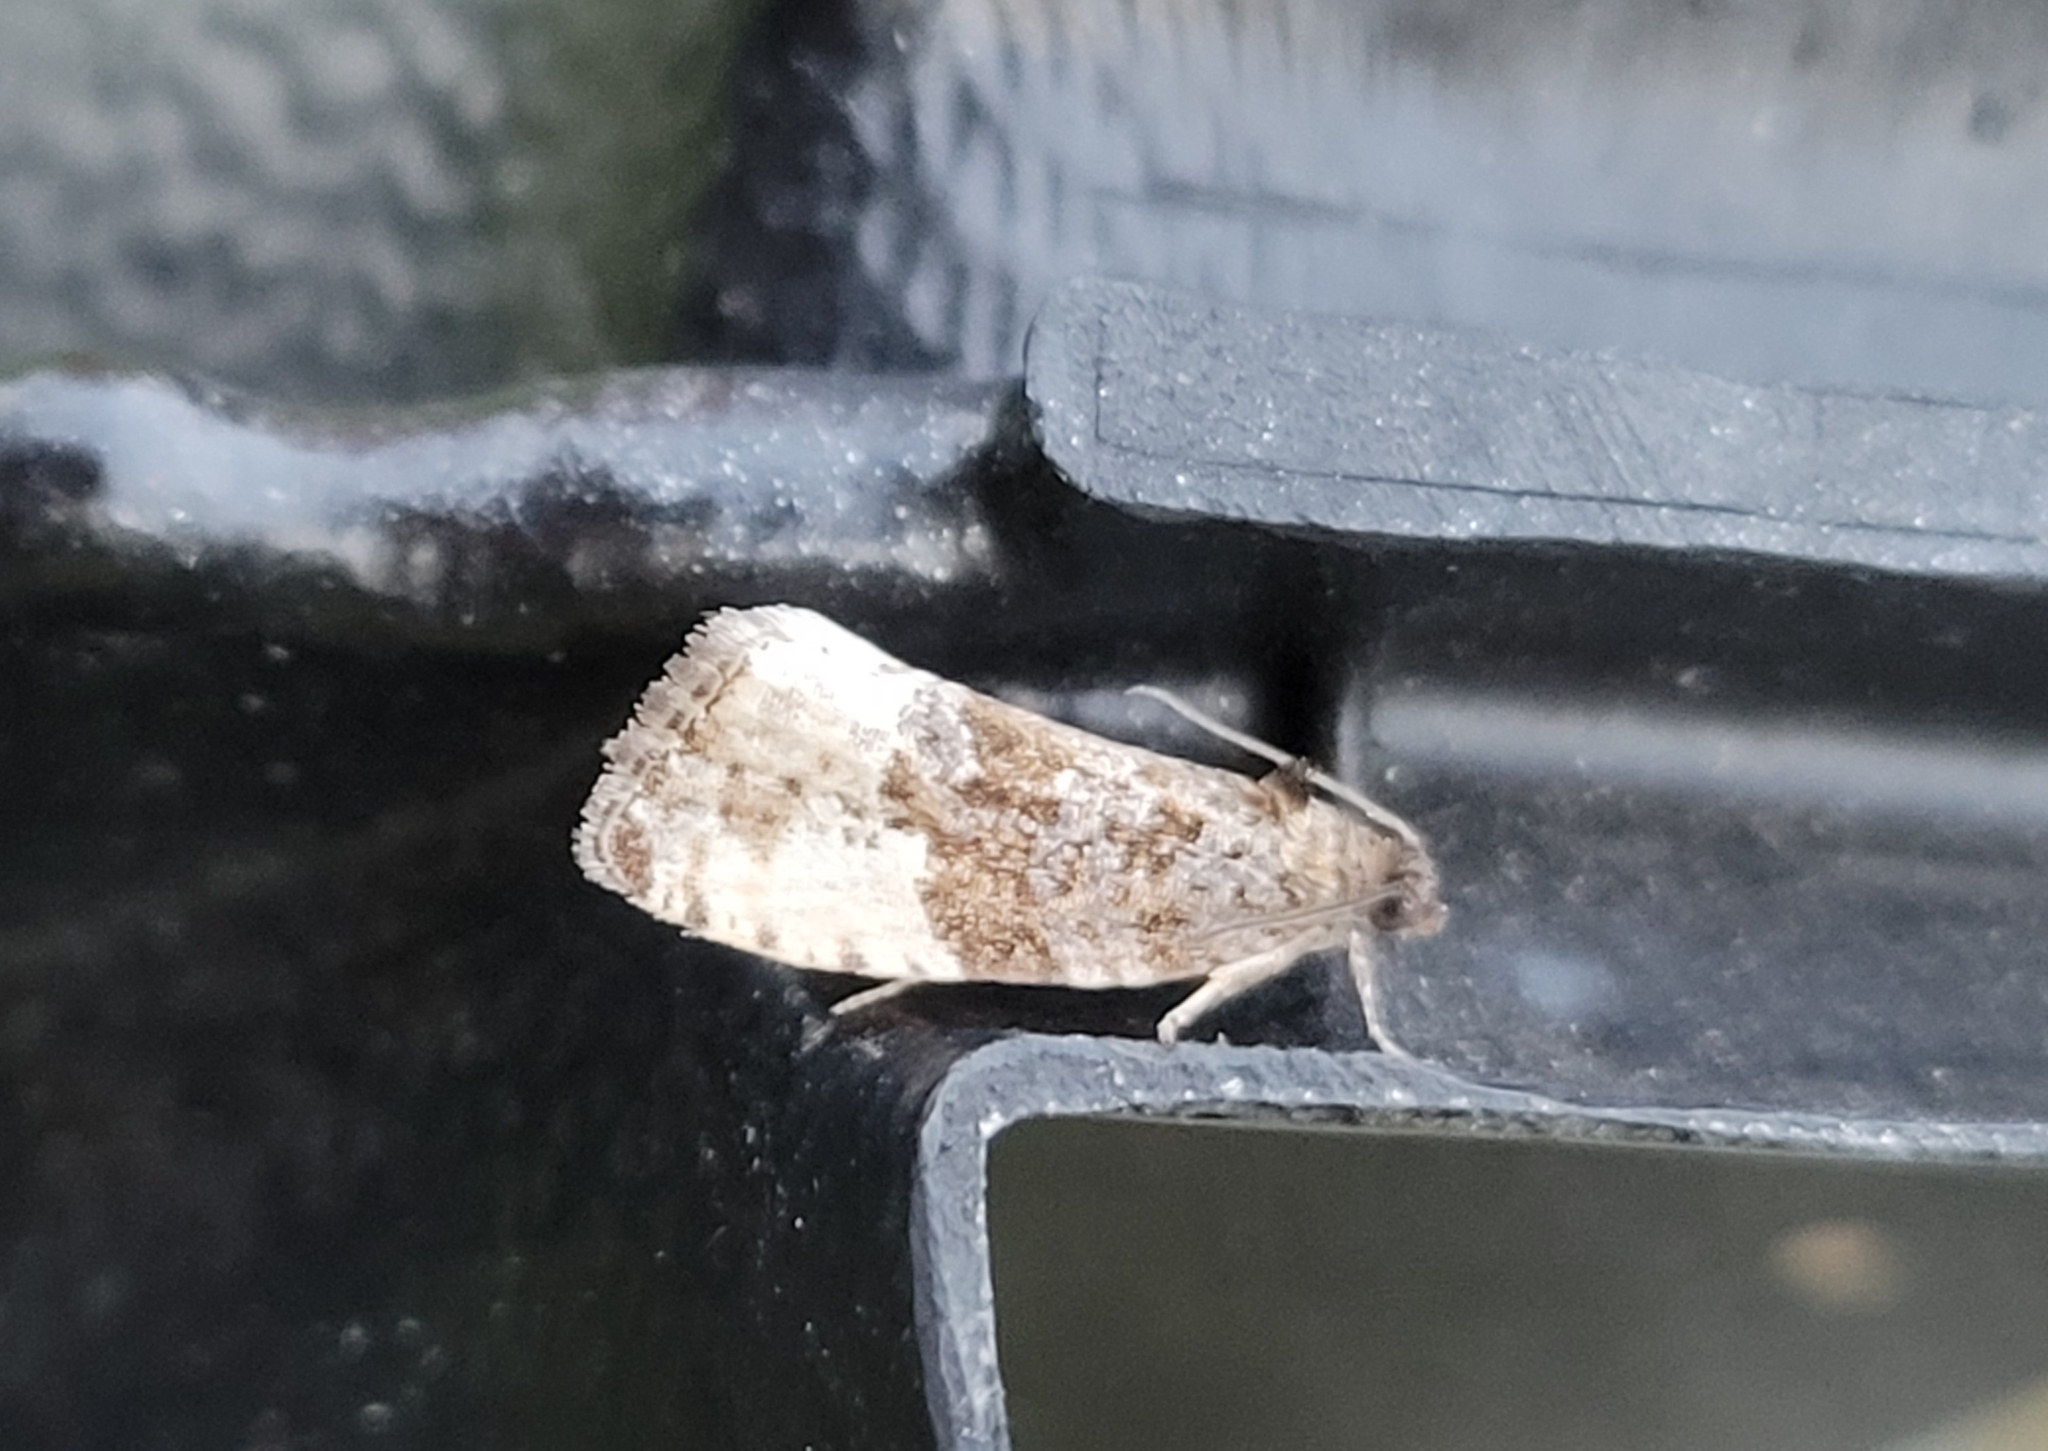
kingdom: Animalia
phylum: Arthropoda
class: Insecta
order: Lepidoptera
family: Tortricidae
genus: Hedya
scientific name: Hedya pruniana
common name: Plum tortrix
